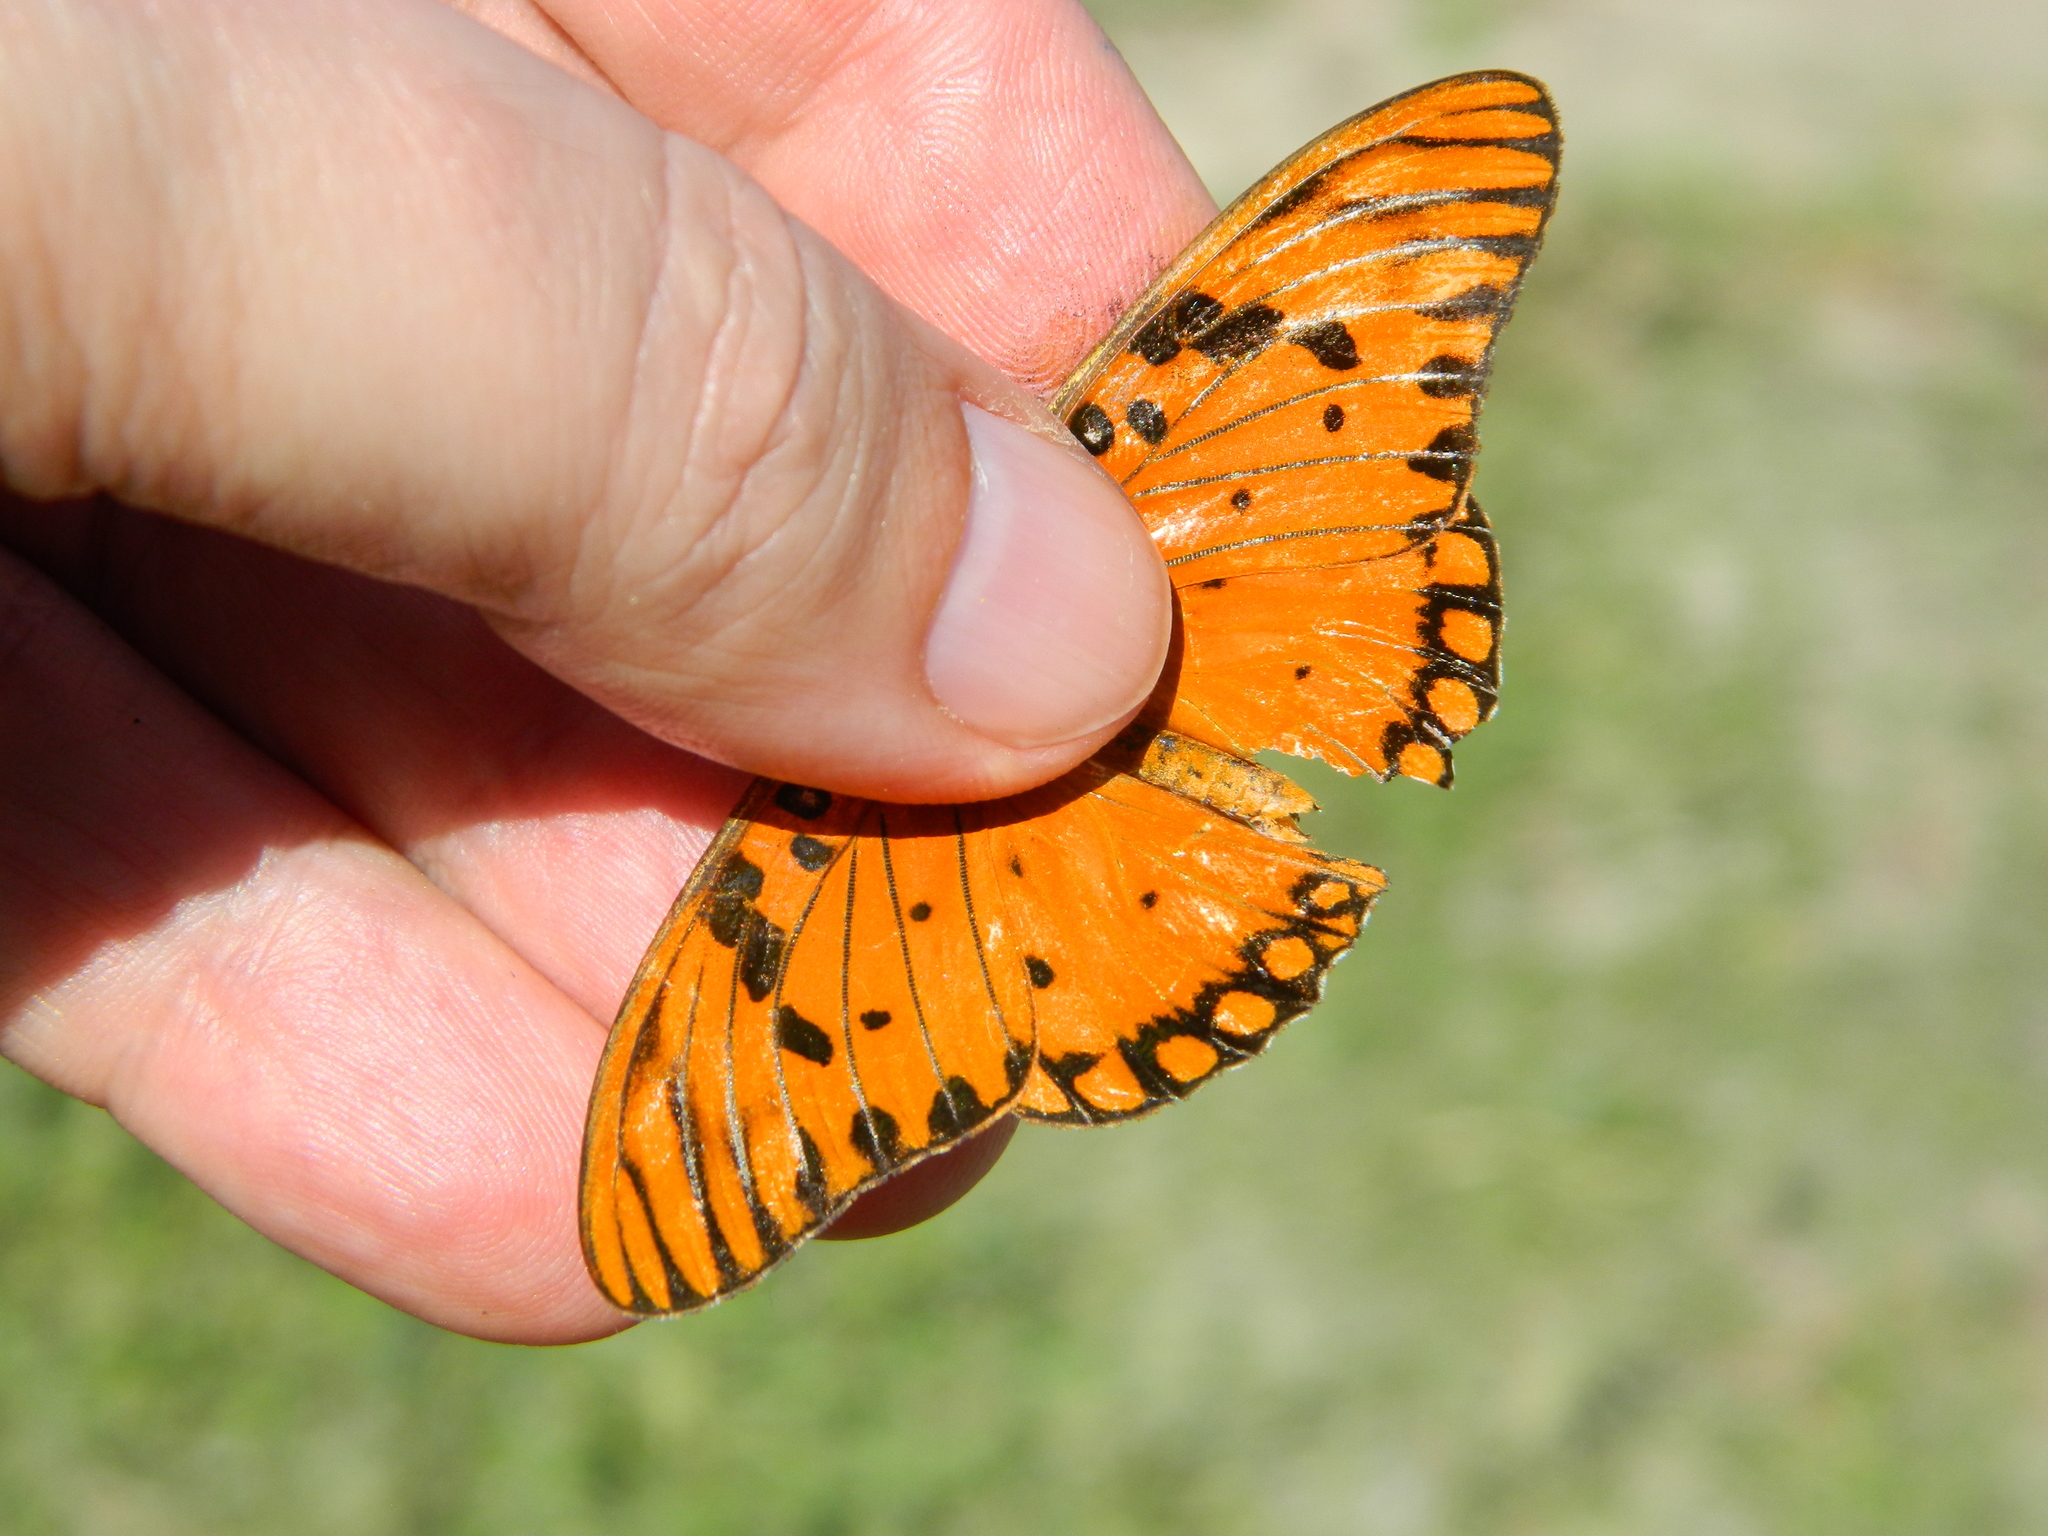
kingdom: Animalia
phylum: Arthropoda
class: Insecta
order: Lepidoptera
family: Nymphalidae
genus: Dione
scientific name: Dione vanillae
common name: Gulf fritillary
